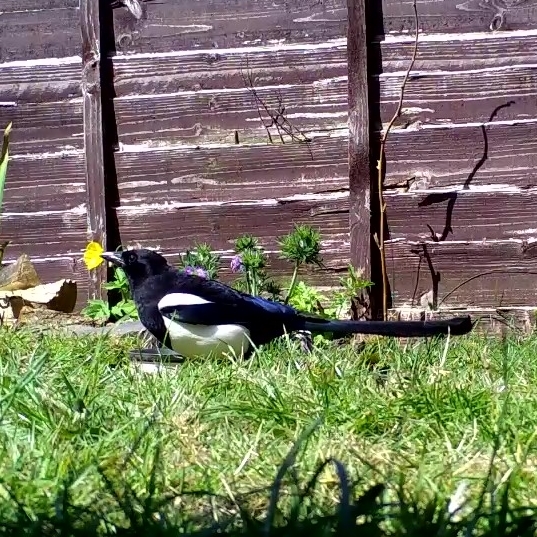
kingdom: Animalia
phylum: Chordata
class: Aves
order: Passeriformes
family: Corvidae
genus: Pica
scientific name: Pica pica
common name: Eurasian magpie
